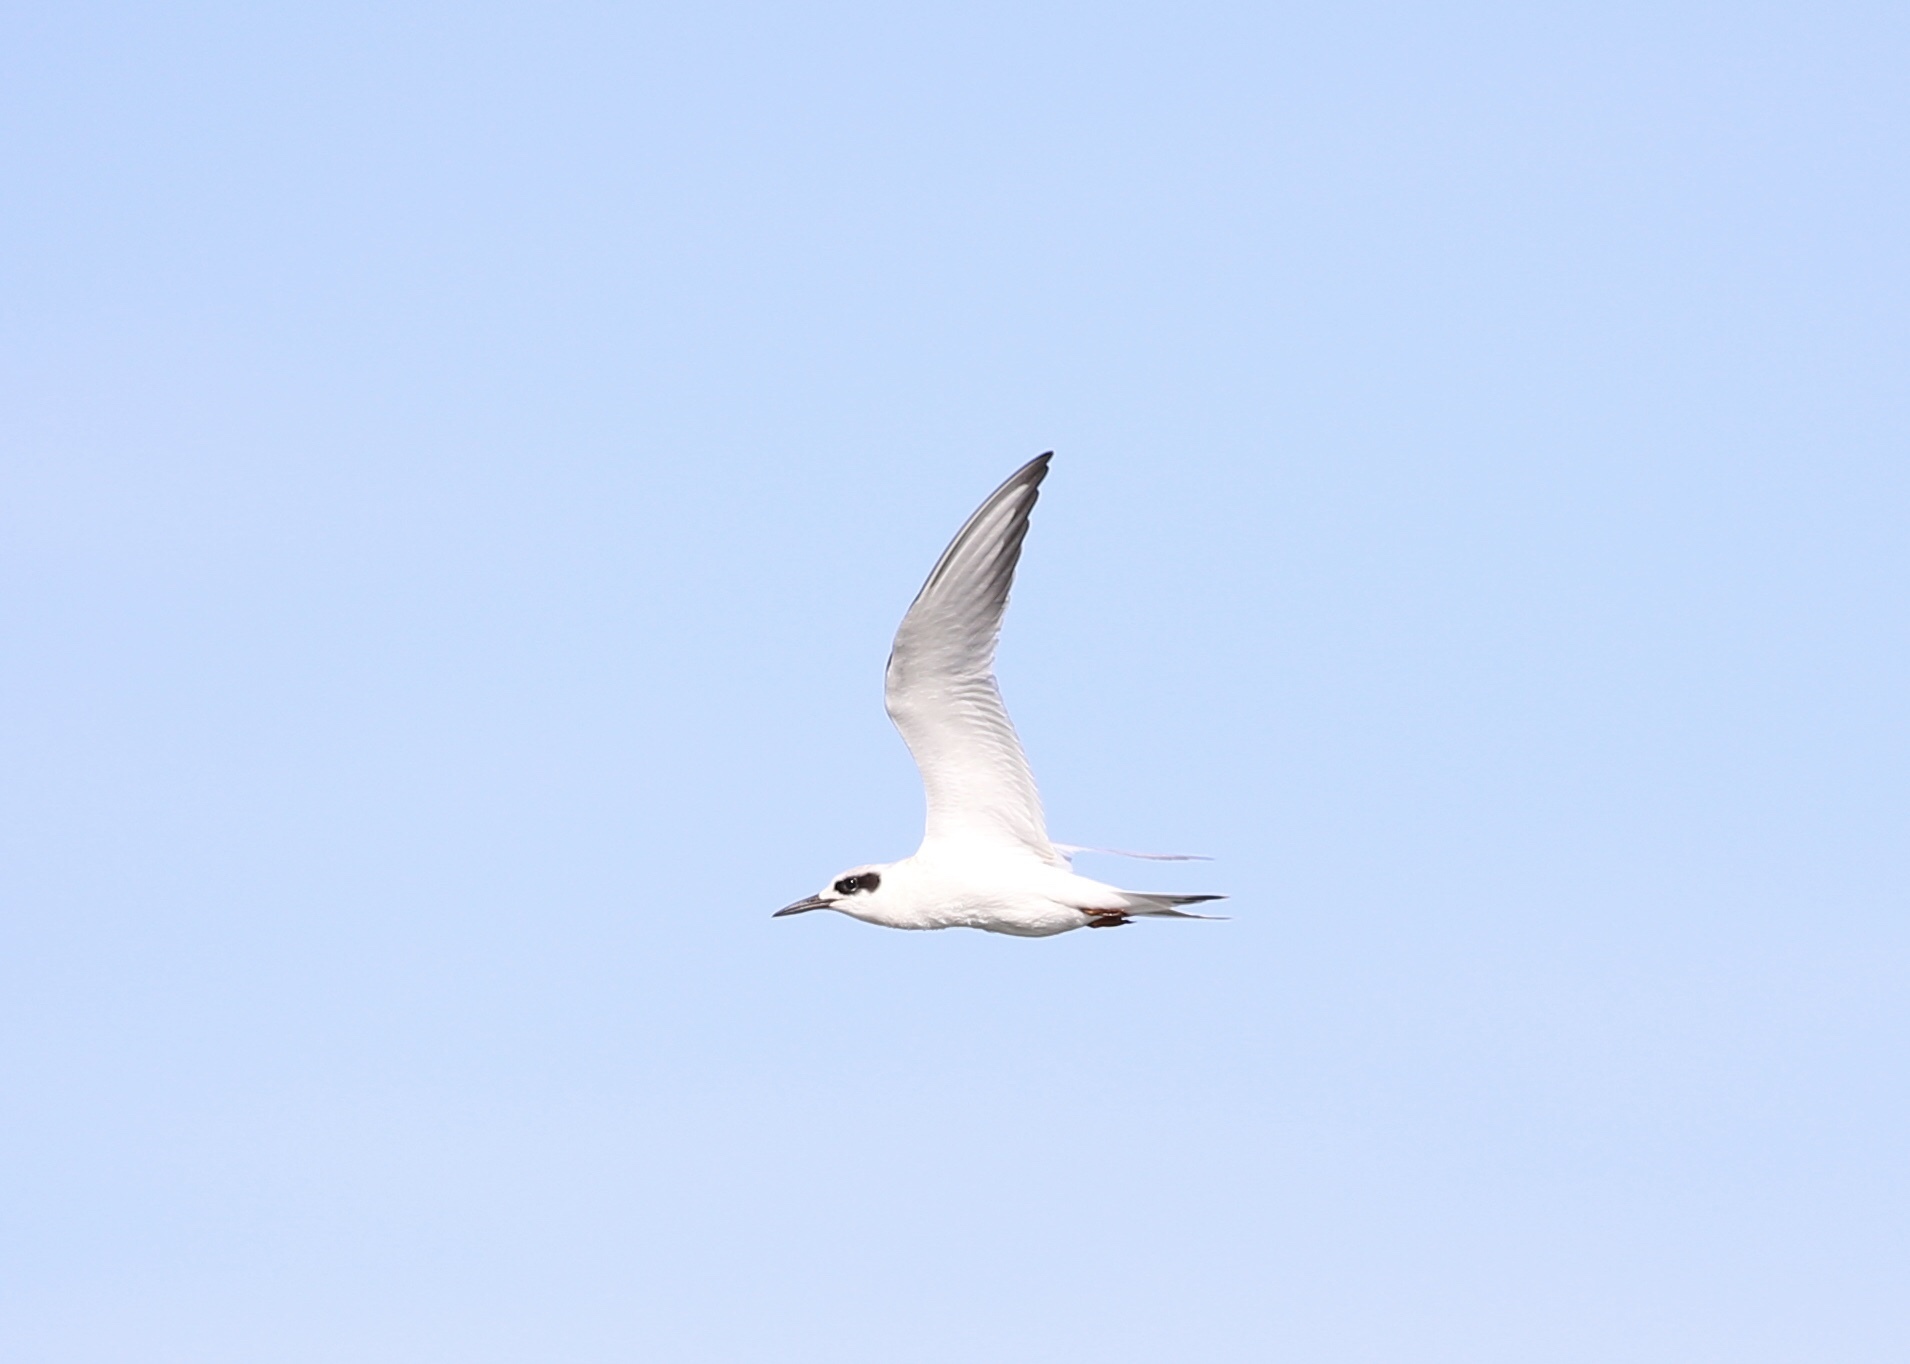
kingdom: Animalia
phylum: Chordata
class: Aves
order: Charadriiformes
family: Laridae
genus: Sterna
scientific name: Sterna forsteri
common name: Forster's tern
